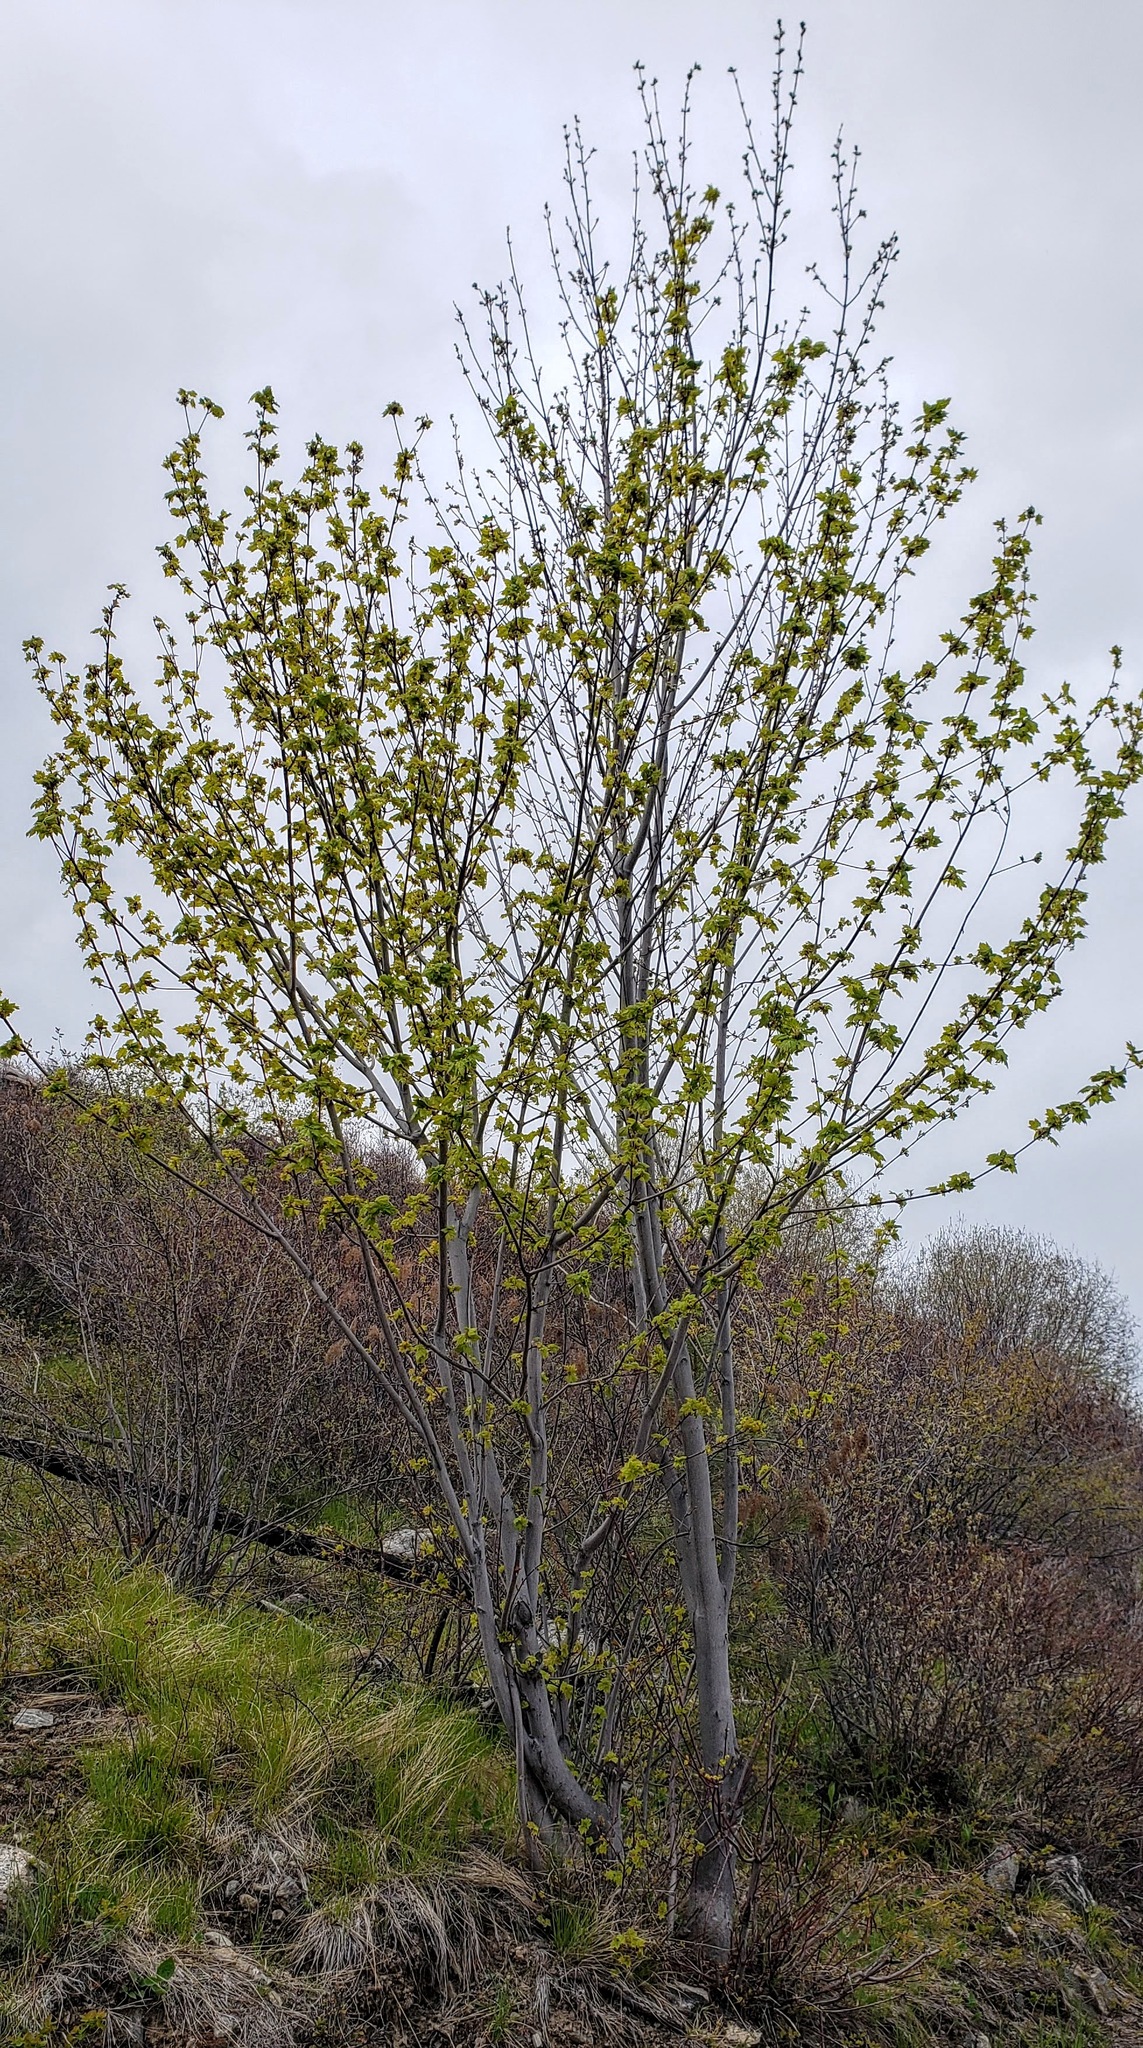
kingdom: Plantae
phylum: Tracheophyta
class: Magnoliopsida
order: Sapindales
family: Sapindaceae
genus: Acer
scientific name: Acer glabrum
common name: Rocky mountain maple
